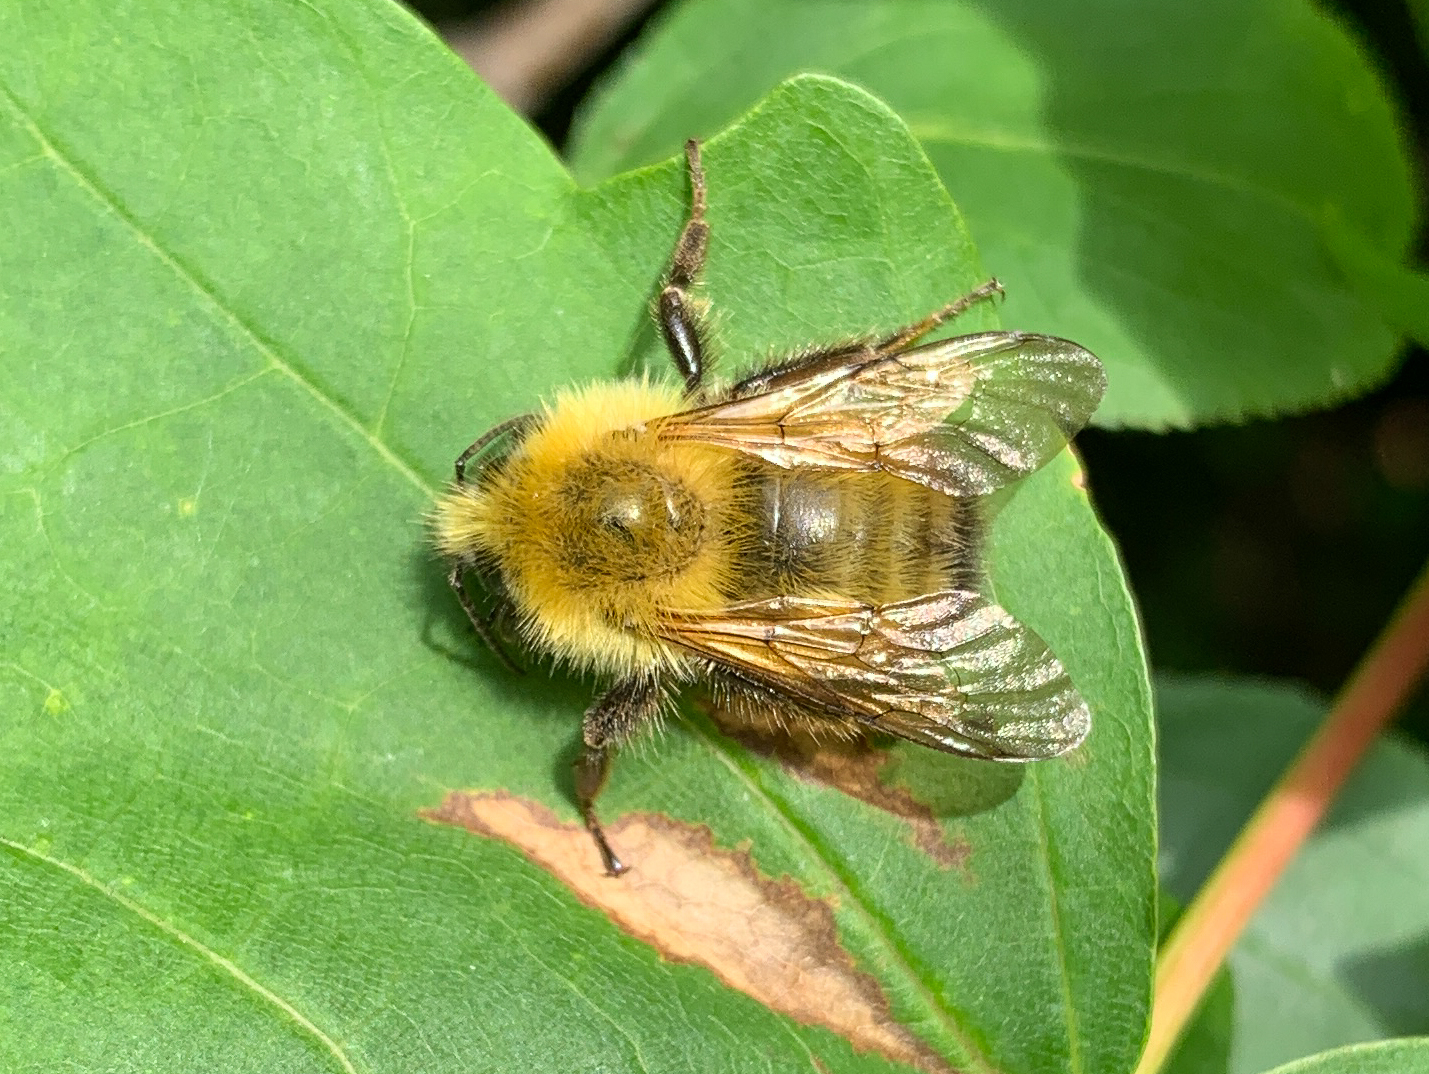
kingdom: Animalia
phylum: Arthropoda
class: Insecta
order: Hymenoptera
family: Apidae
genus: Bombus
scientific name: Bombus perplexus
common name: Confusing bumble bee
